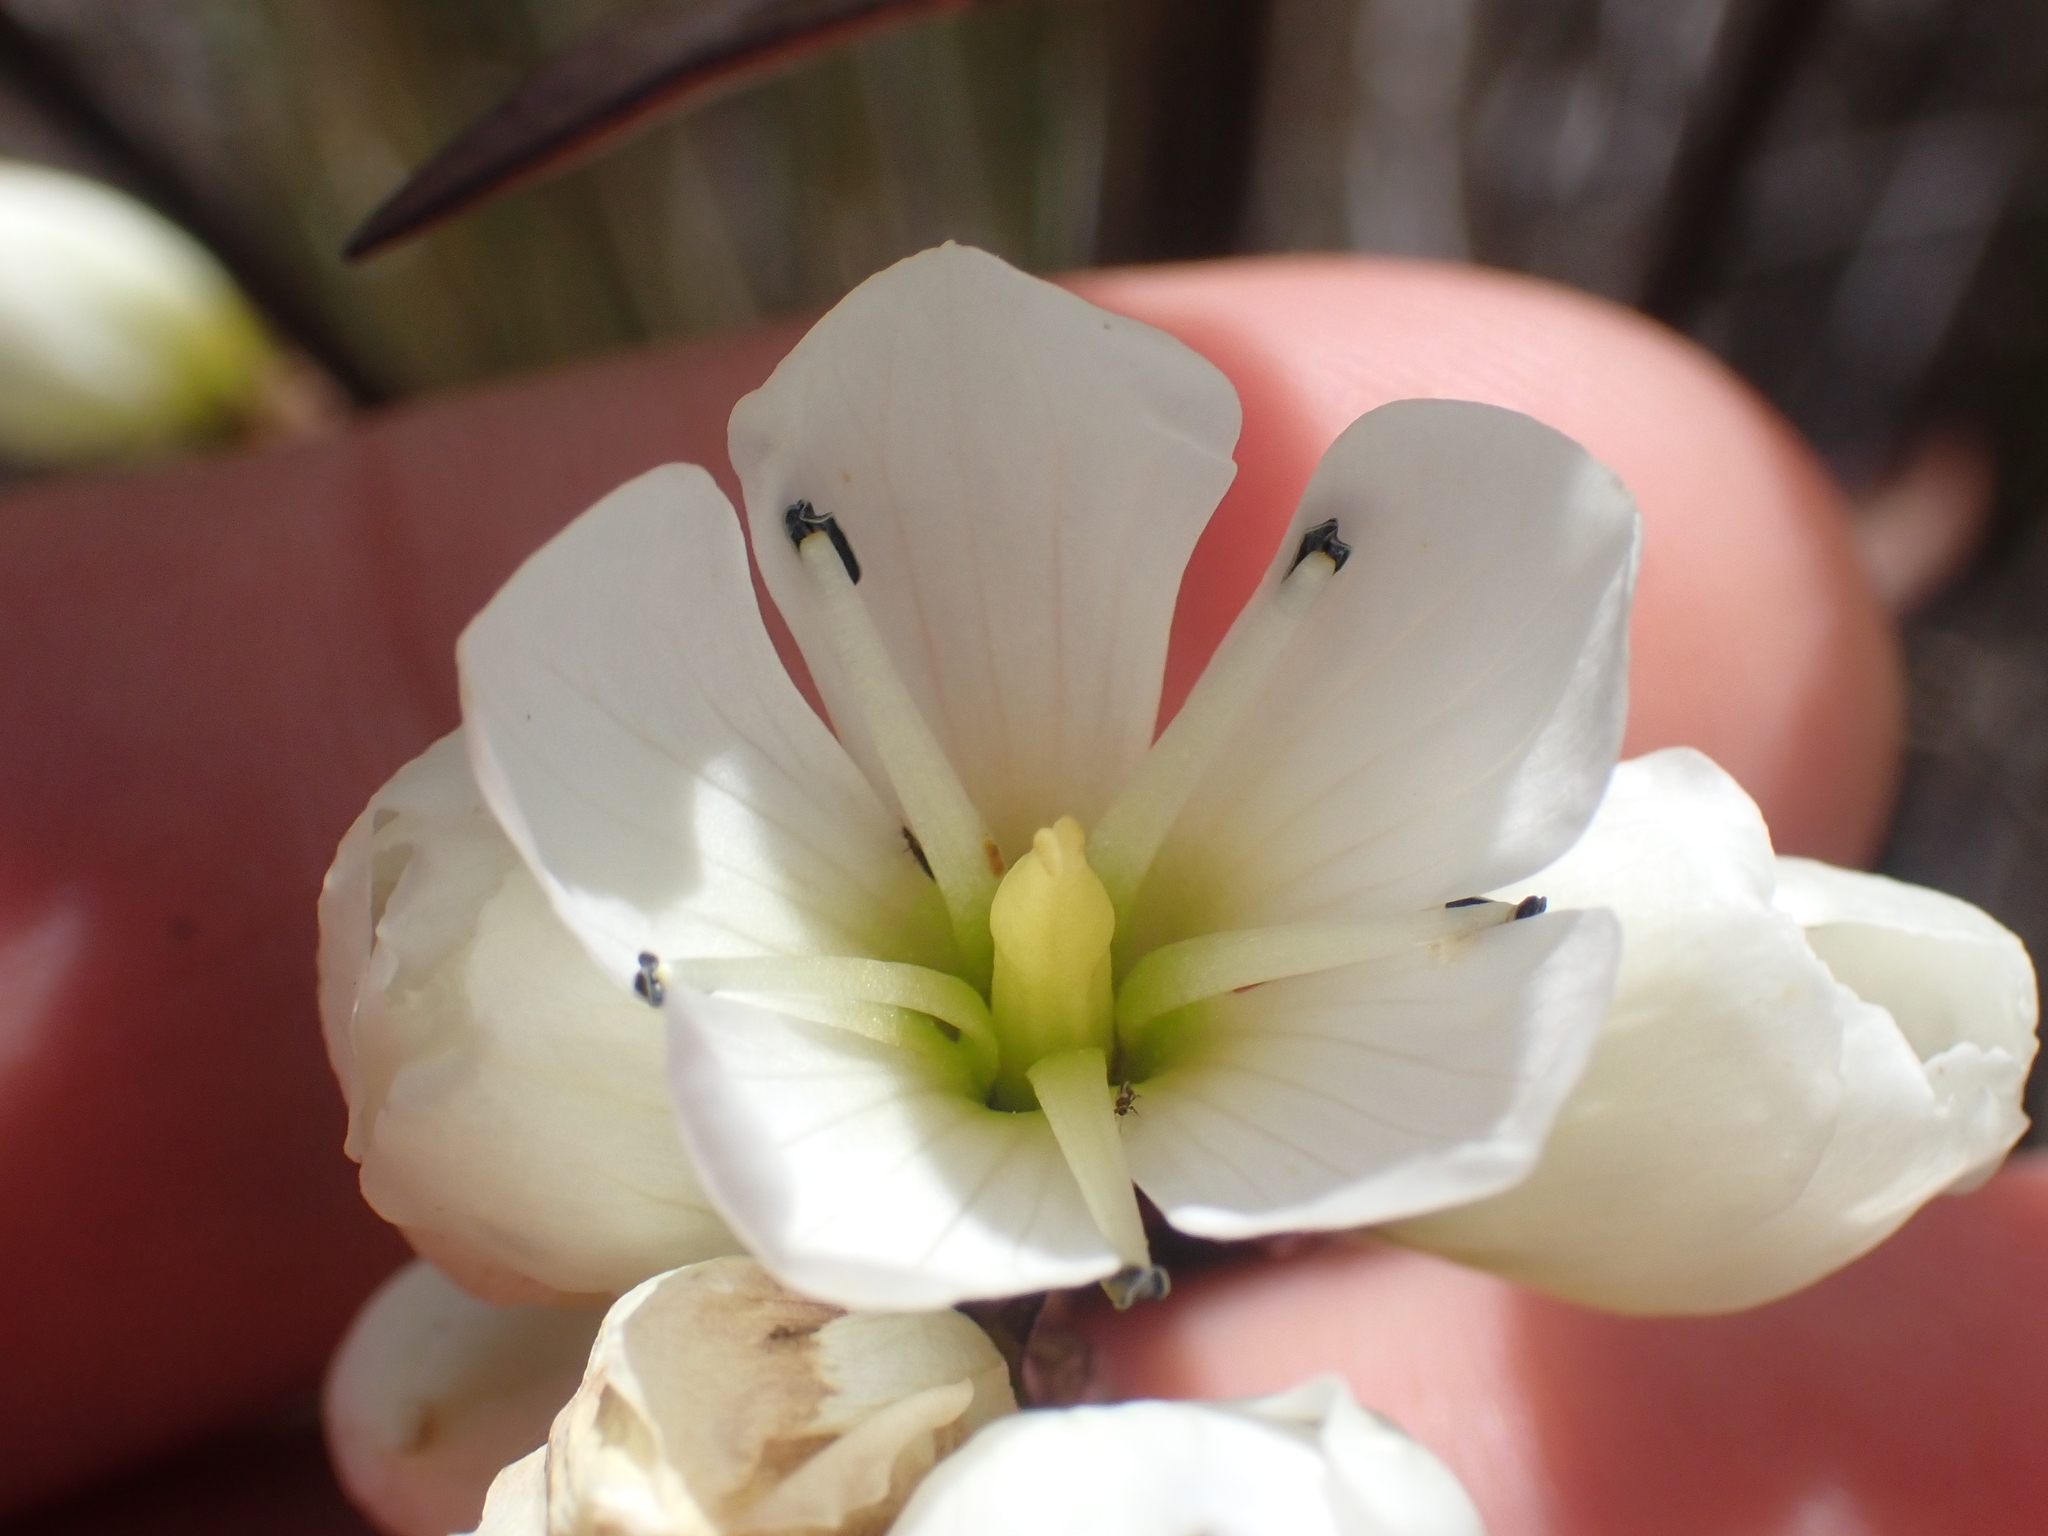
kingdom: Plantae
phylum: Tracheophyta
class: Magnoliopsida
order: Gentianales
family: Gentianaceae
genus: Gentianella
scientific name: Gentianella corymbifera
